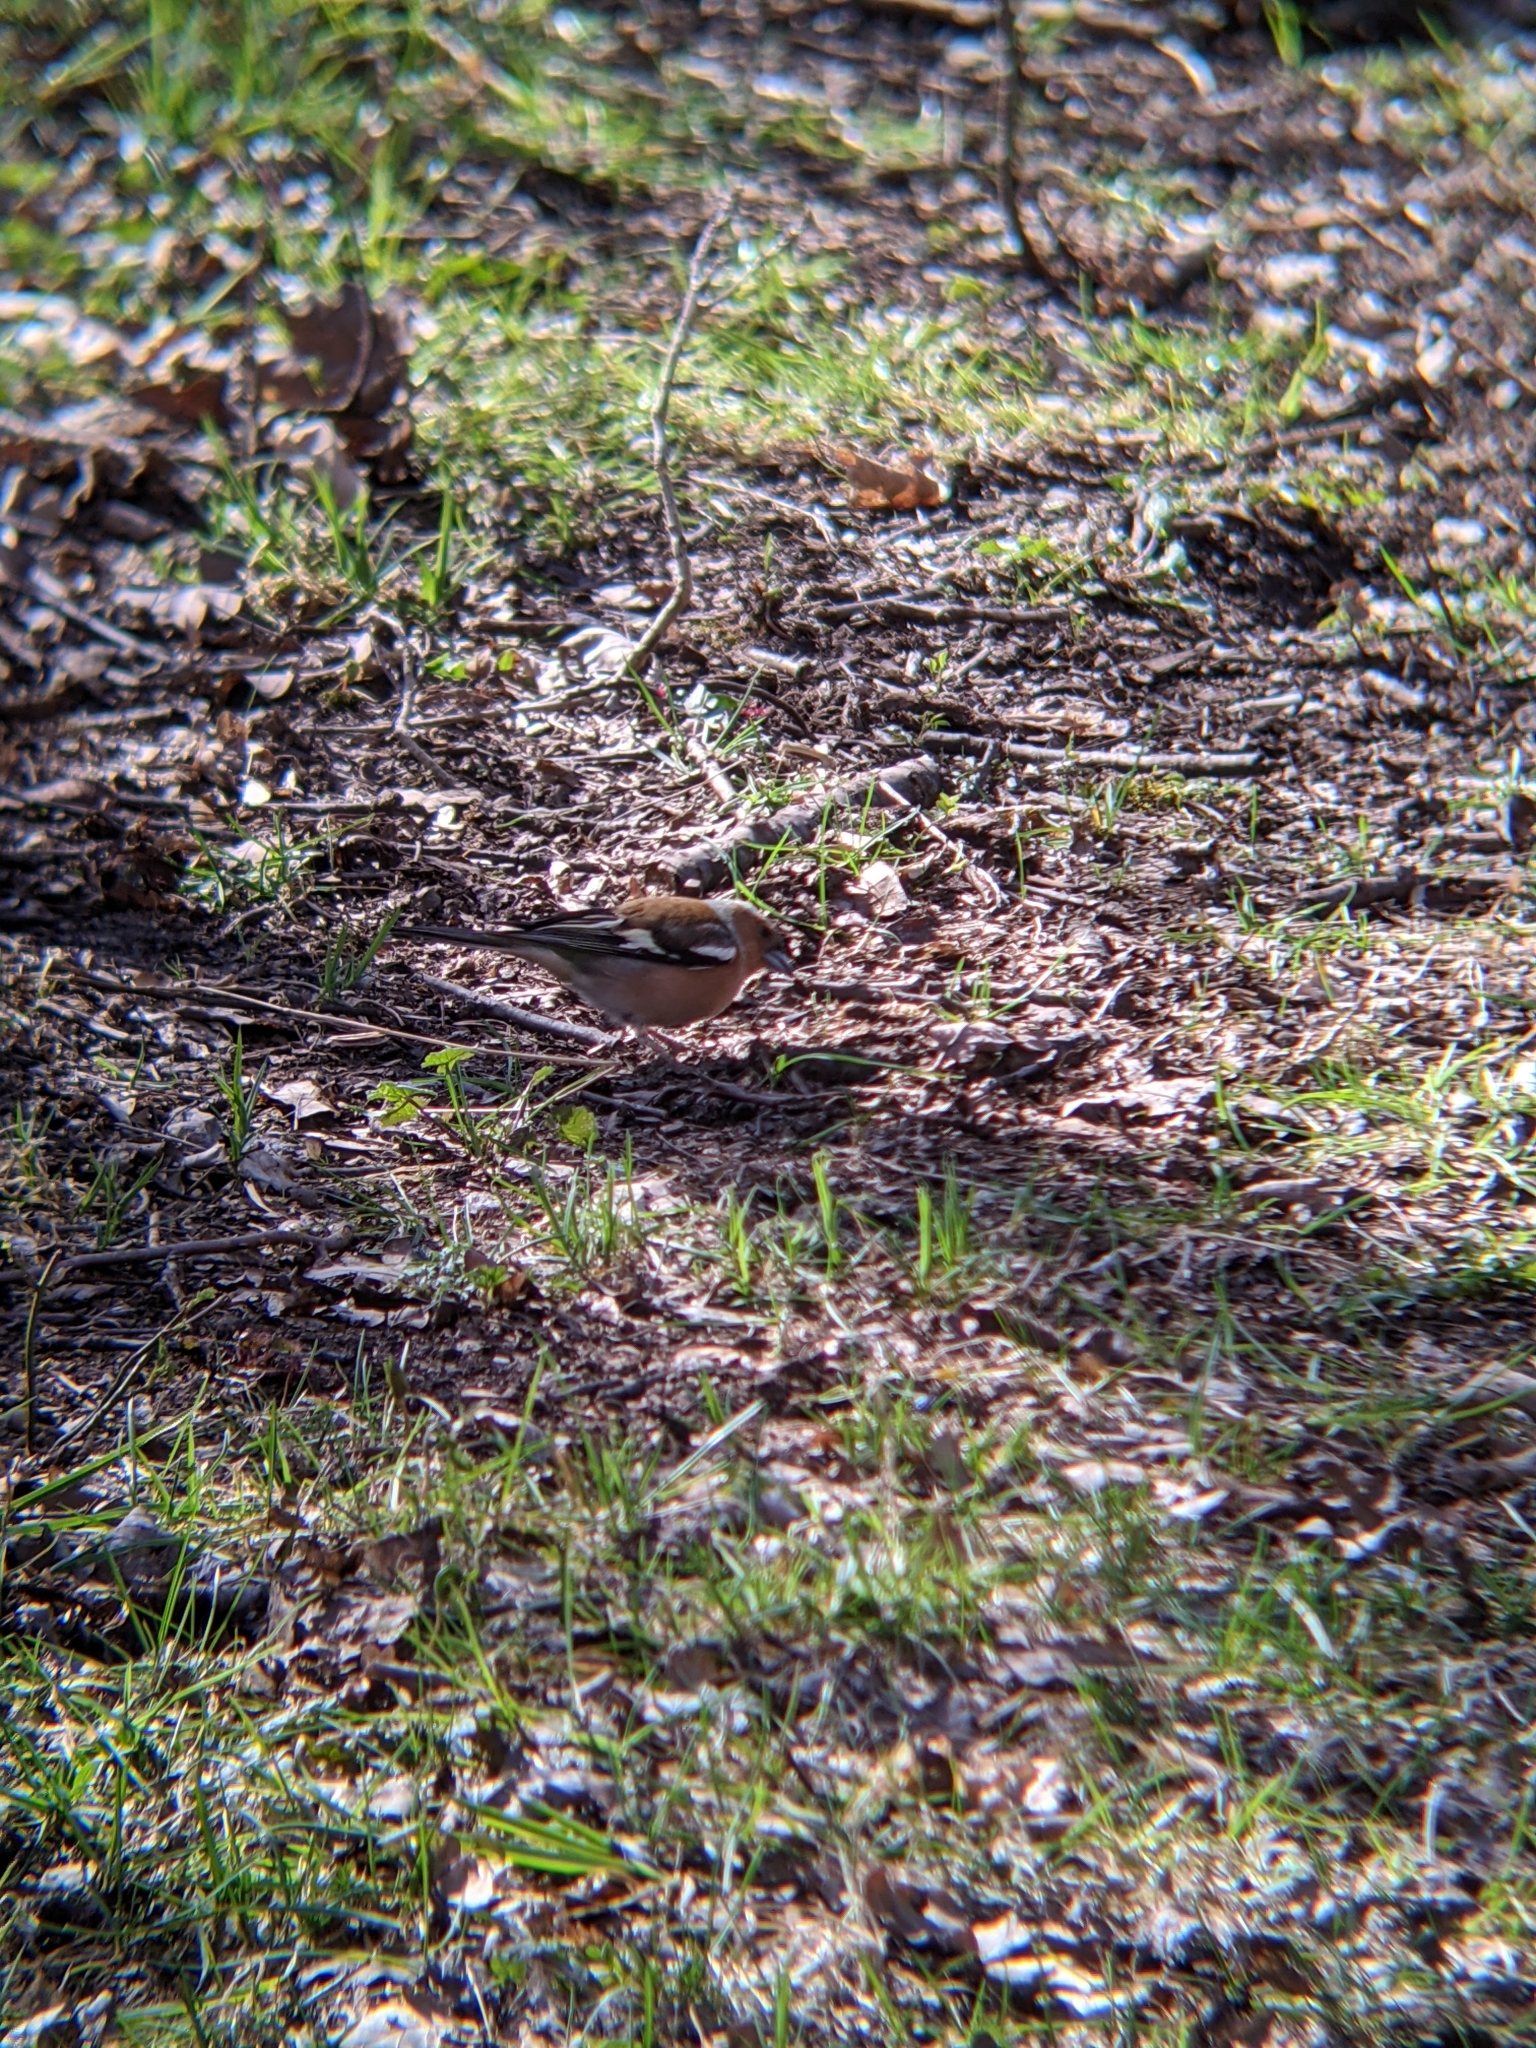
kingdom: Animalia
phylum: Chordata
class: Aves
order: Passeriformes
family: Fringillidae
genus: Fringilla
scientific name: Fringilla coelebs
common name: Common chaffinch
